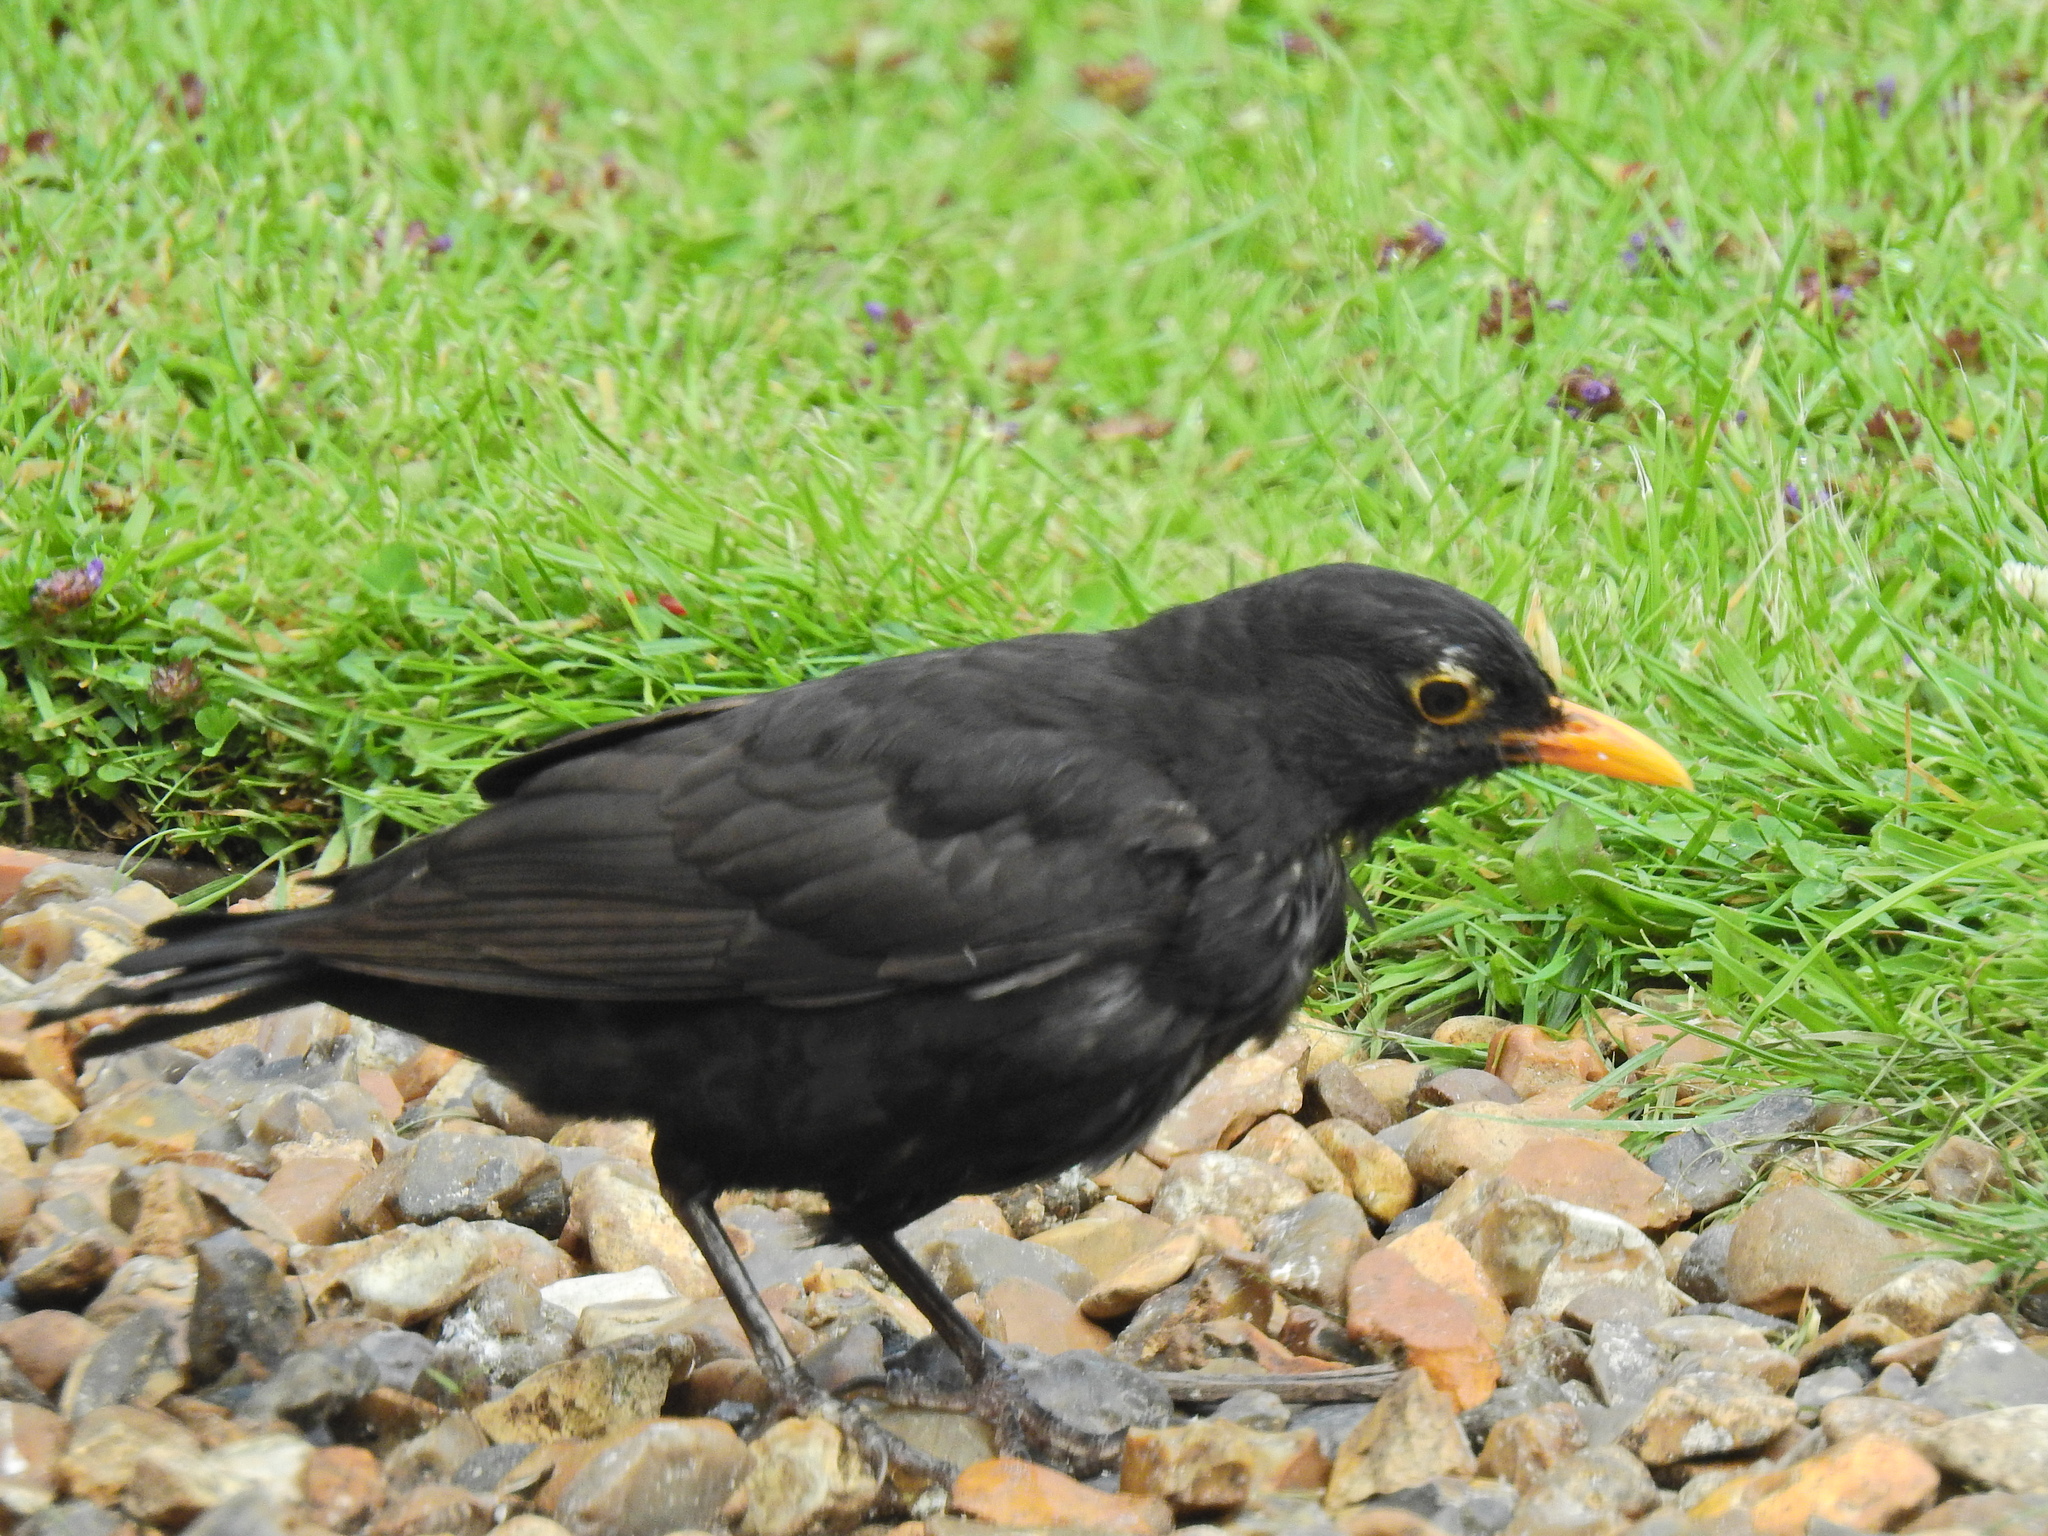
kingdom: Animalia
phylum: Chordata
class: Aves
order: Passeriformes
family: Turdidae
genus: Turdus
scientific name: Turdus merula
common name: Common blackbird
